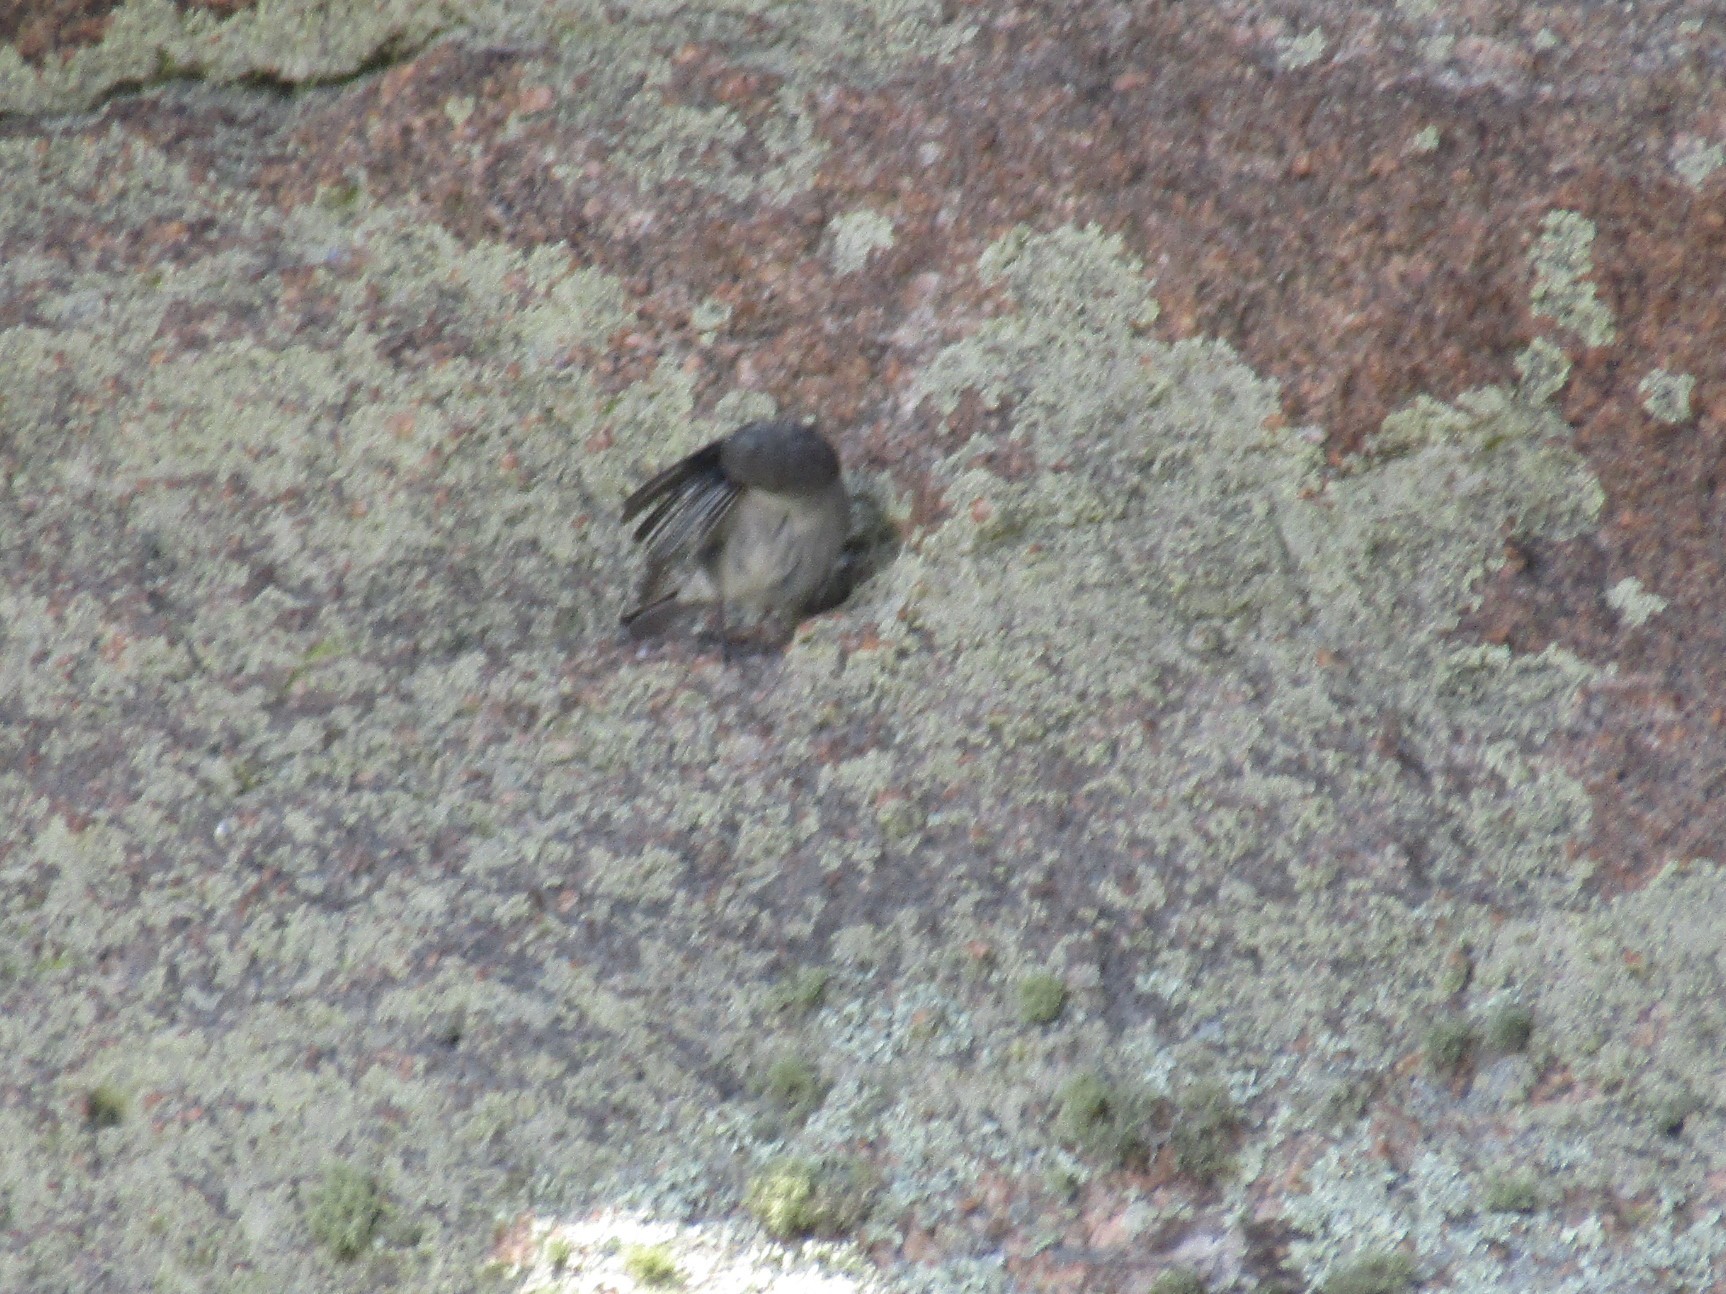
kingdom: Animalia
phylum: Chordata
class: Aves
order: Passeriformes
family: Thraupidae
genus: Geospizopsis
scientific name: Geospizopsis plebejus
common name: Ash-breasted sierra-finch
